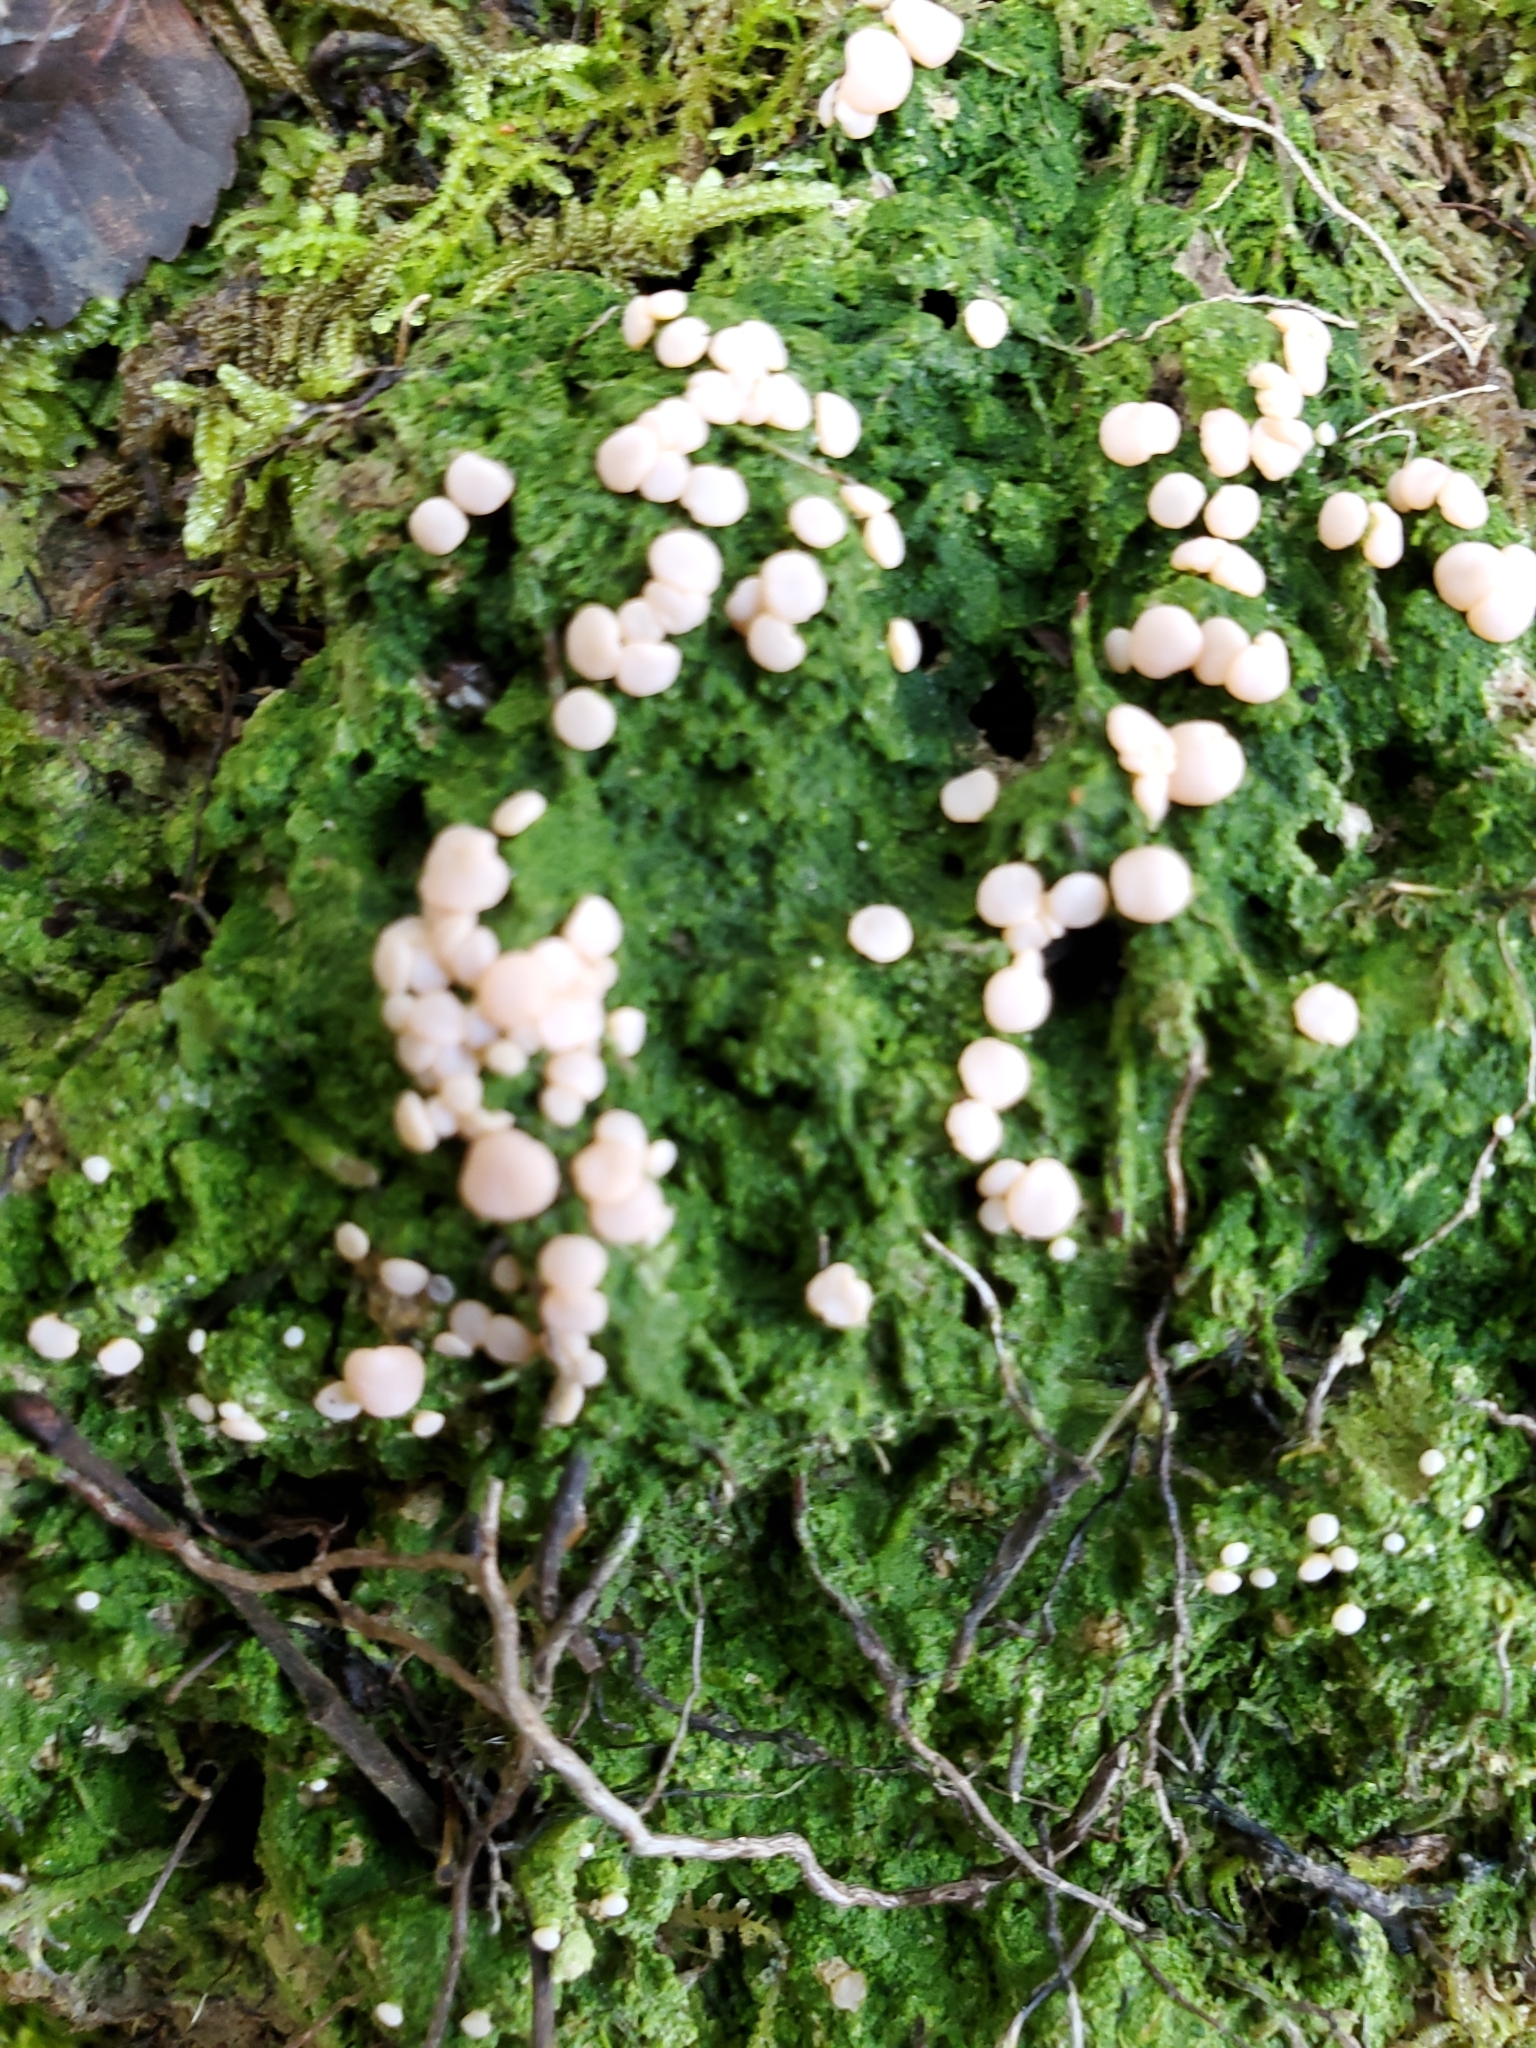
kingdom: Fungi
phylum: Ascomycota
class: Lecanoromycetes
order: Pertusariales
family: Icmadophilaceae
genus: Dibaeis
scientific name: Dibaeis absoluta
